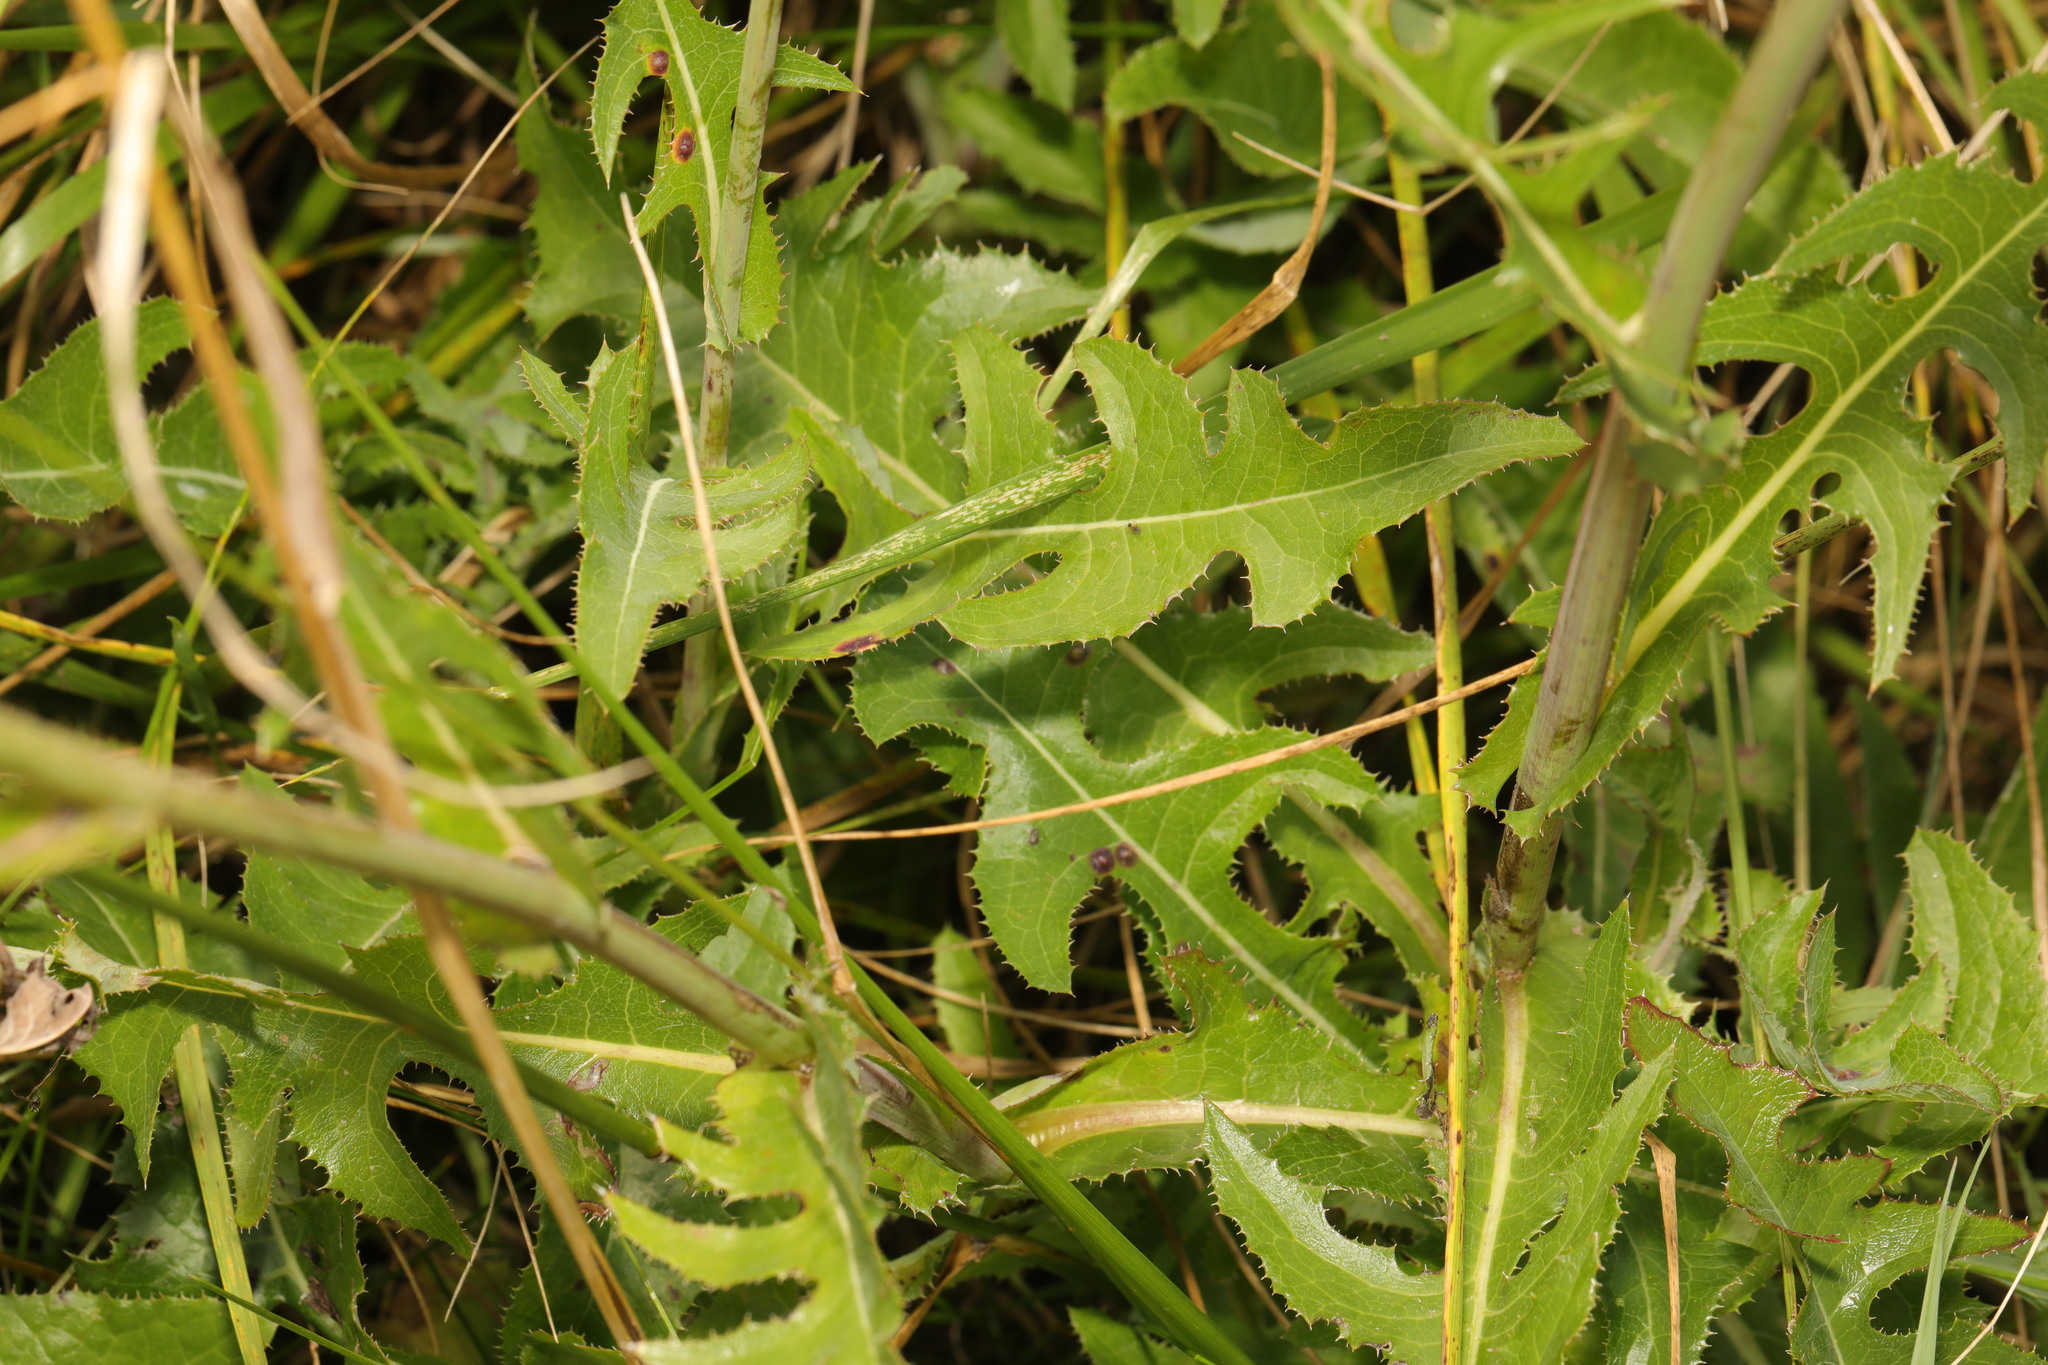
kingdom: Plantae
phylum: Tracheophyta
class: Magnoliopsida
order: Asterales
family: Asteraceae
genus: Sonchus
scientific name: Sonchus arvensis
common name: Perennial sow-thistle
